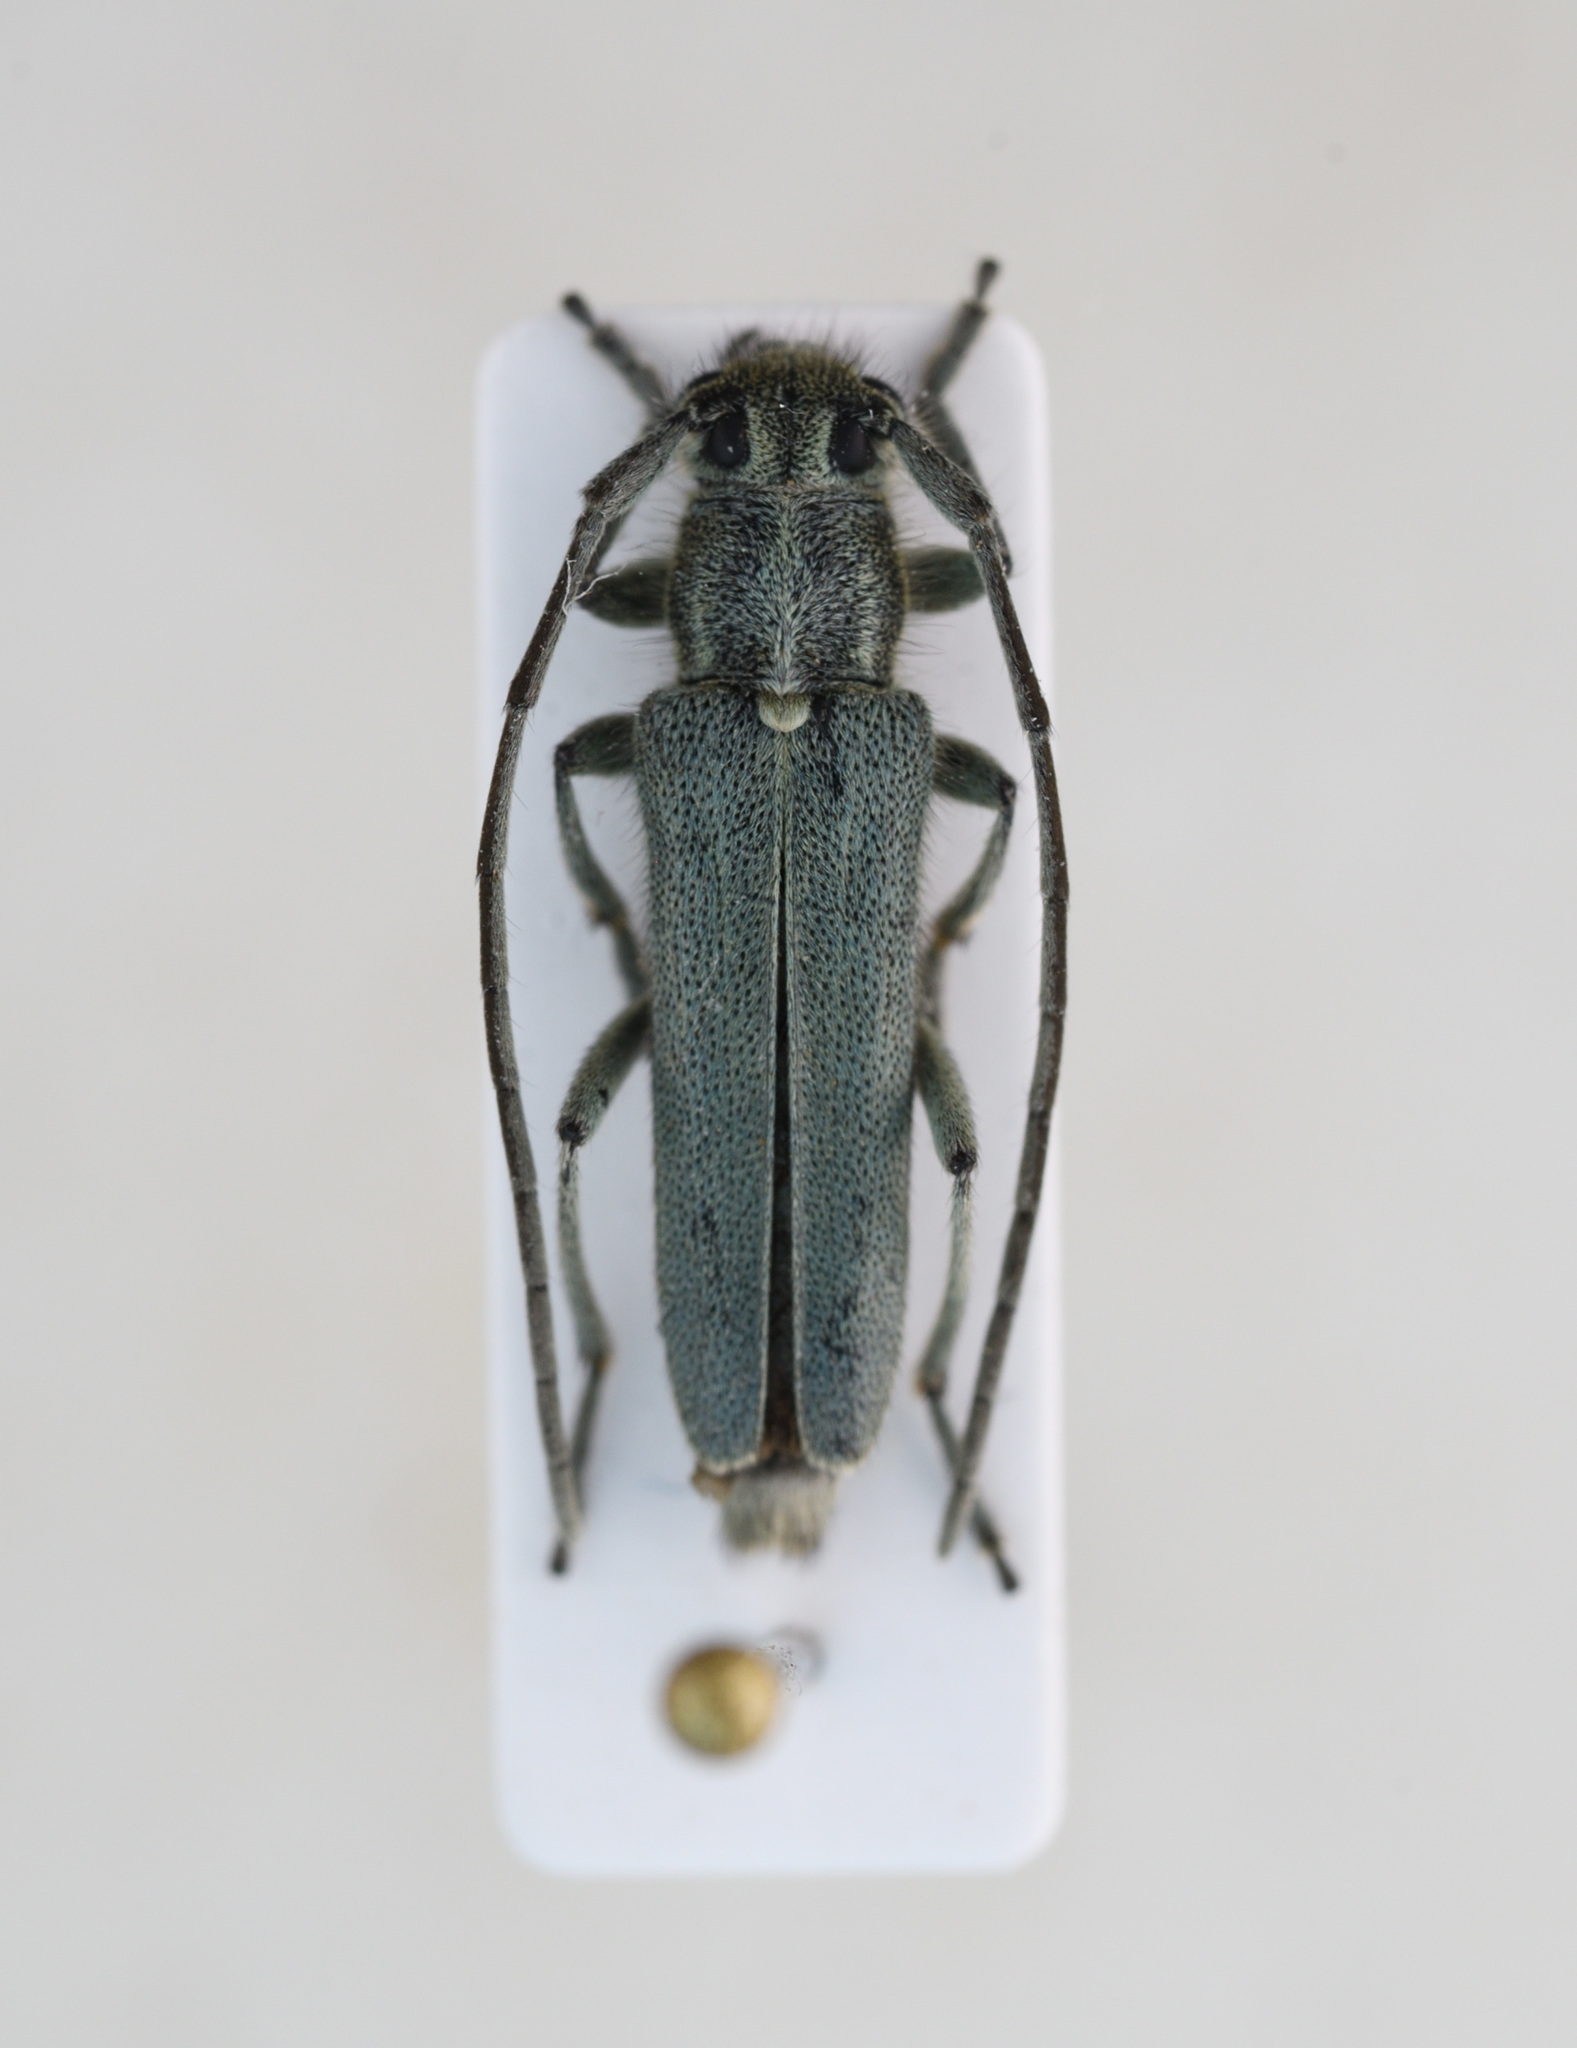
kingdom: Animalia
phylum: Arthropoda
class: Insecta
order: Coleoptera
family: Cerambycidae
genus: Phytoecia
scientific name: Phytoecia coerulescens
